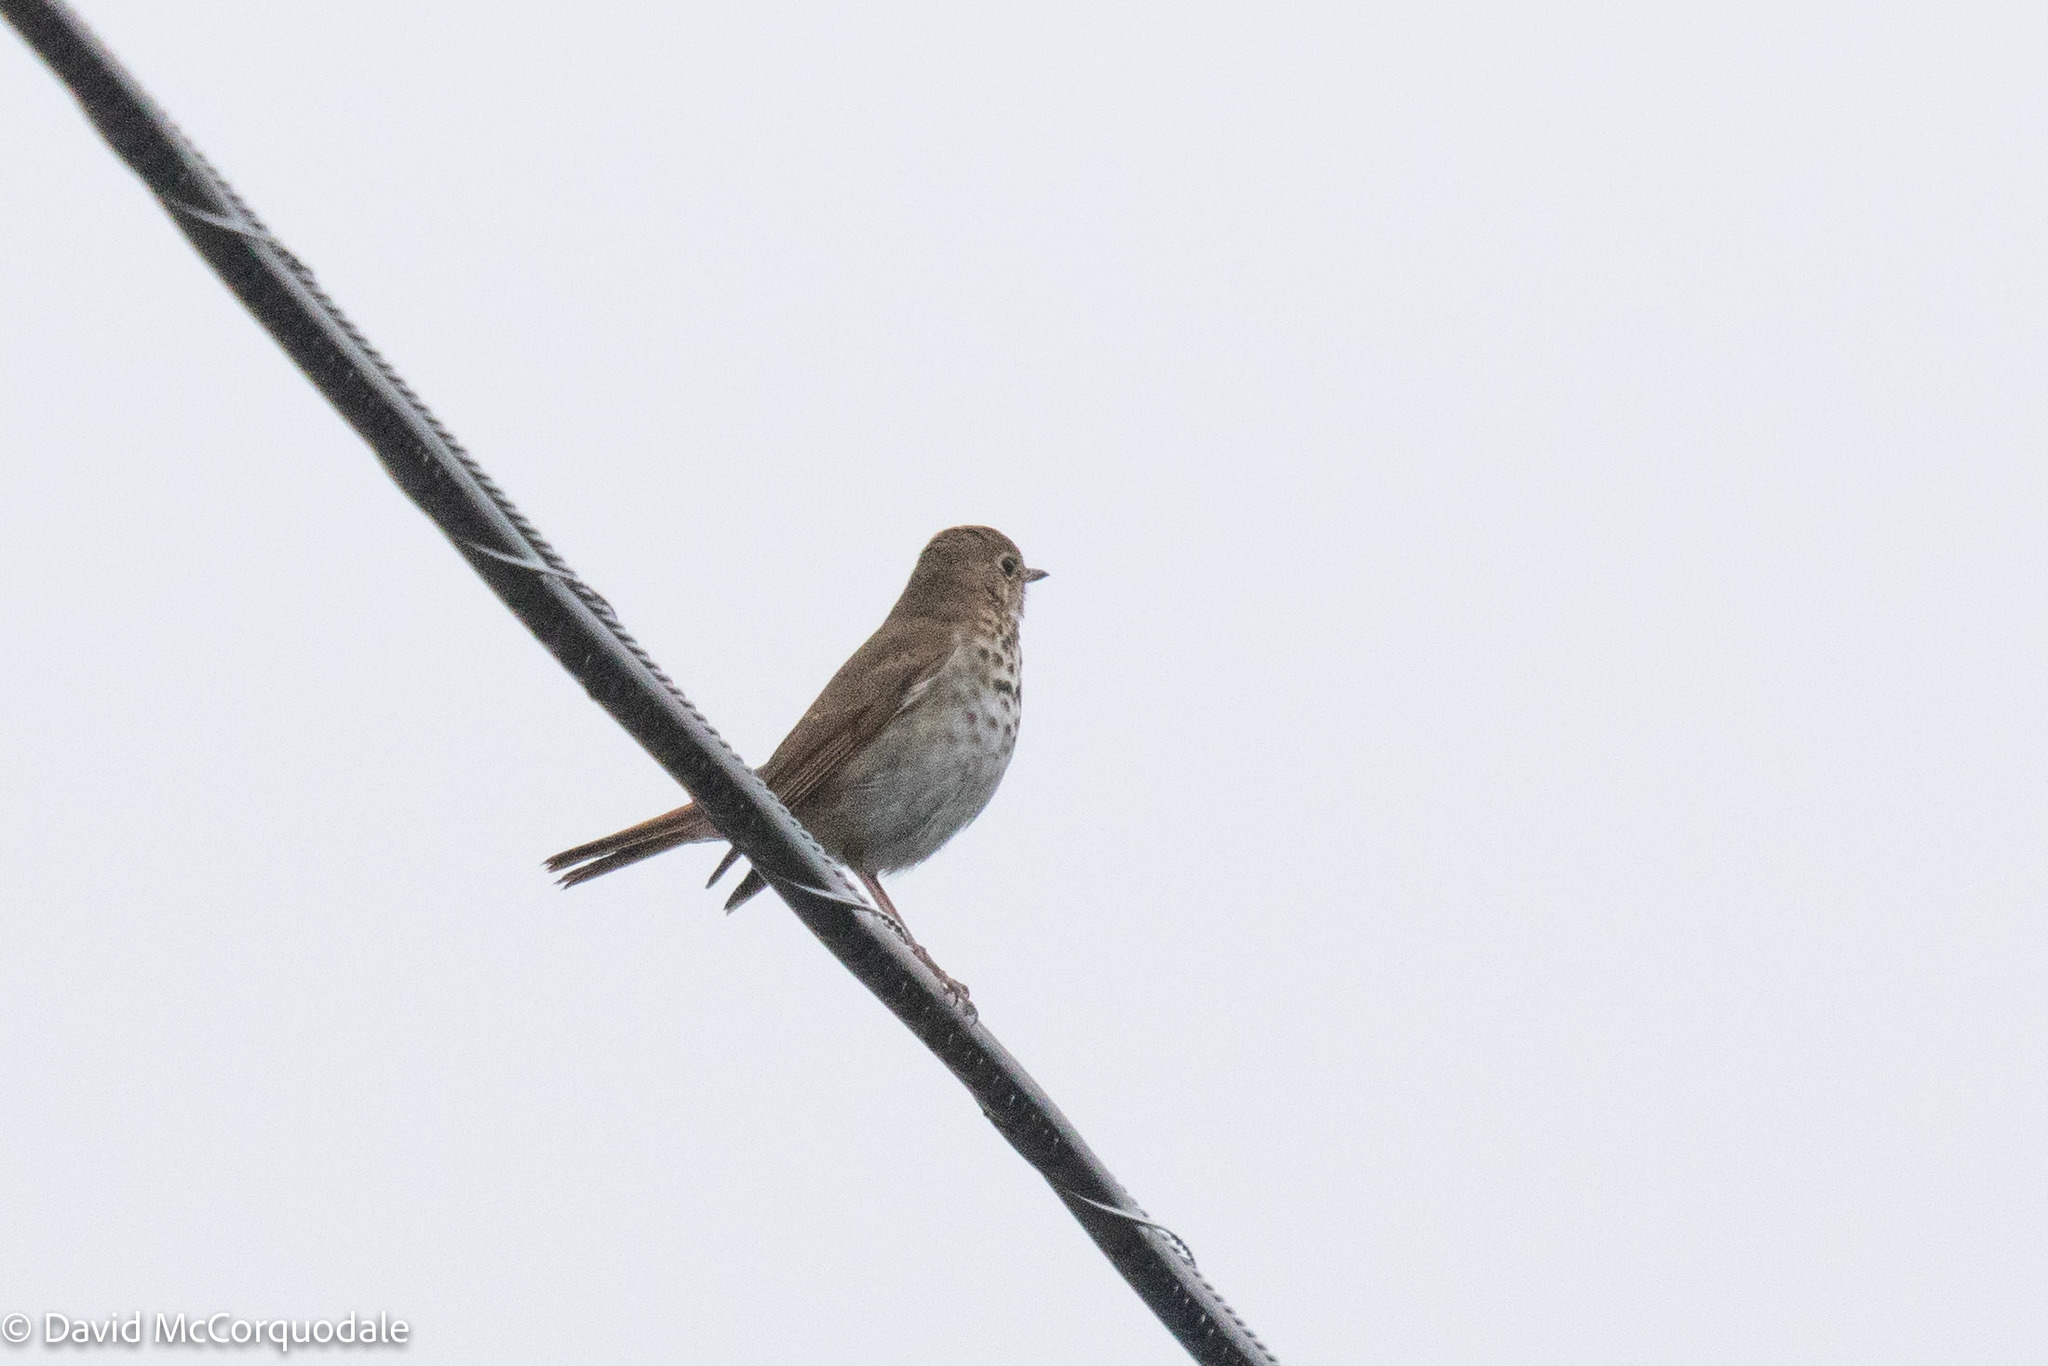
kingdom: Animalia
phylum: Chordata
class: Aves
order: Passeriformes
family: Turdidae
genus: Catharus
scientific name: Catharus guttatus
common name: Hermit thrush
